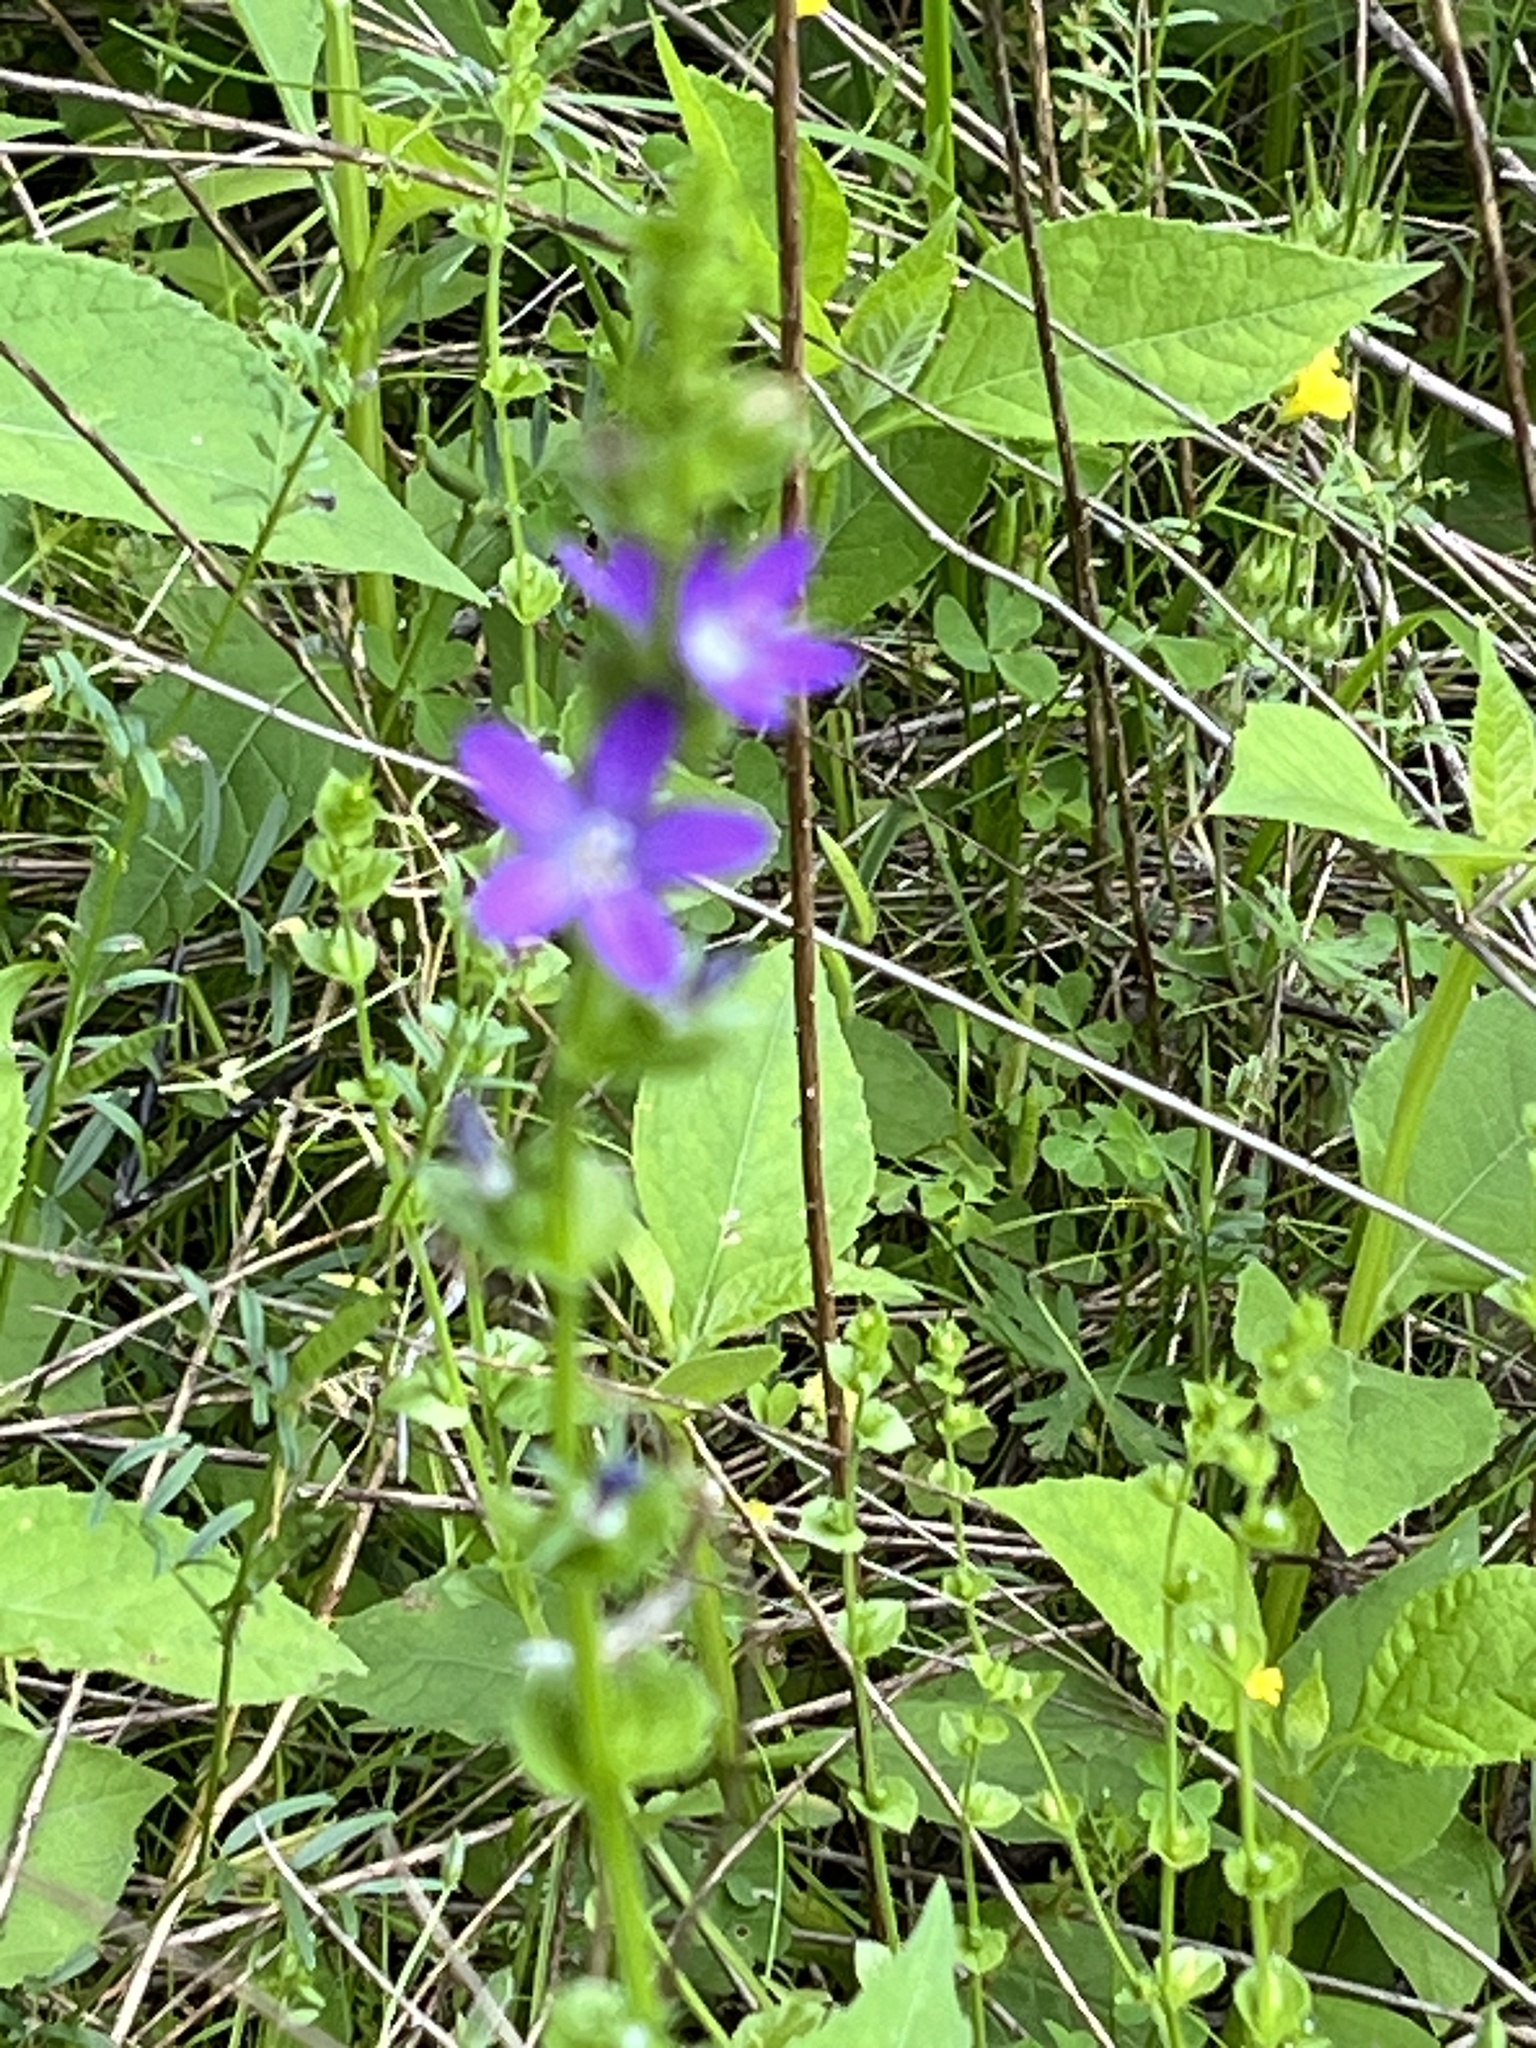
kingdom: Plantae
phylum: Tracheophyta
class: Magnoliopsida
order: Asterales
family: Campanulaceae
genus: Triodanis
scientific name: Triodanis perfoliata
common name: Clasping venus' looking-glass
